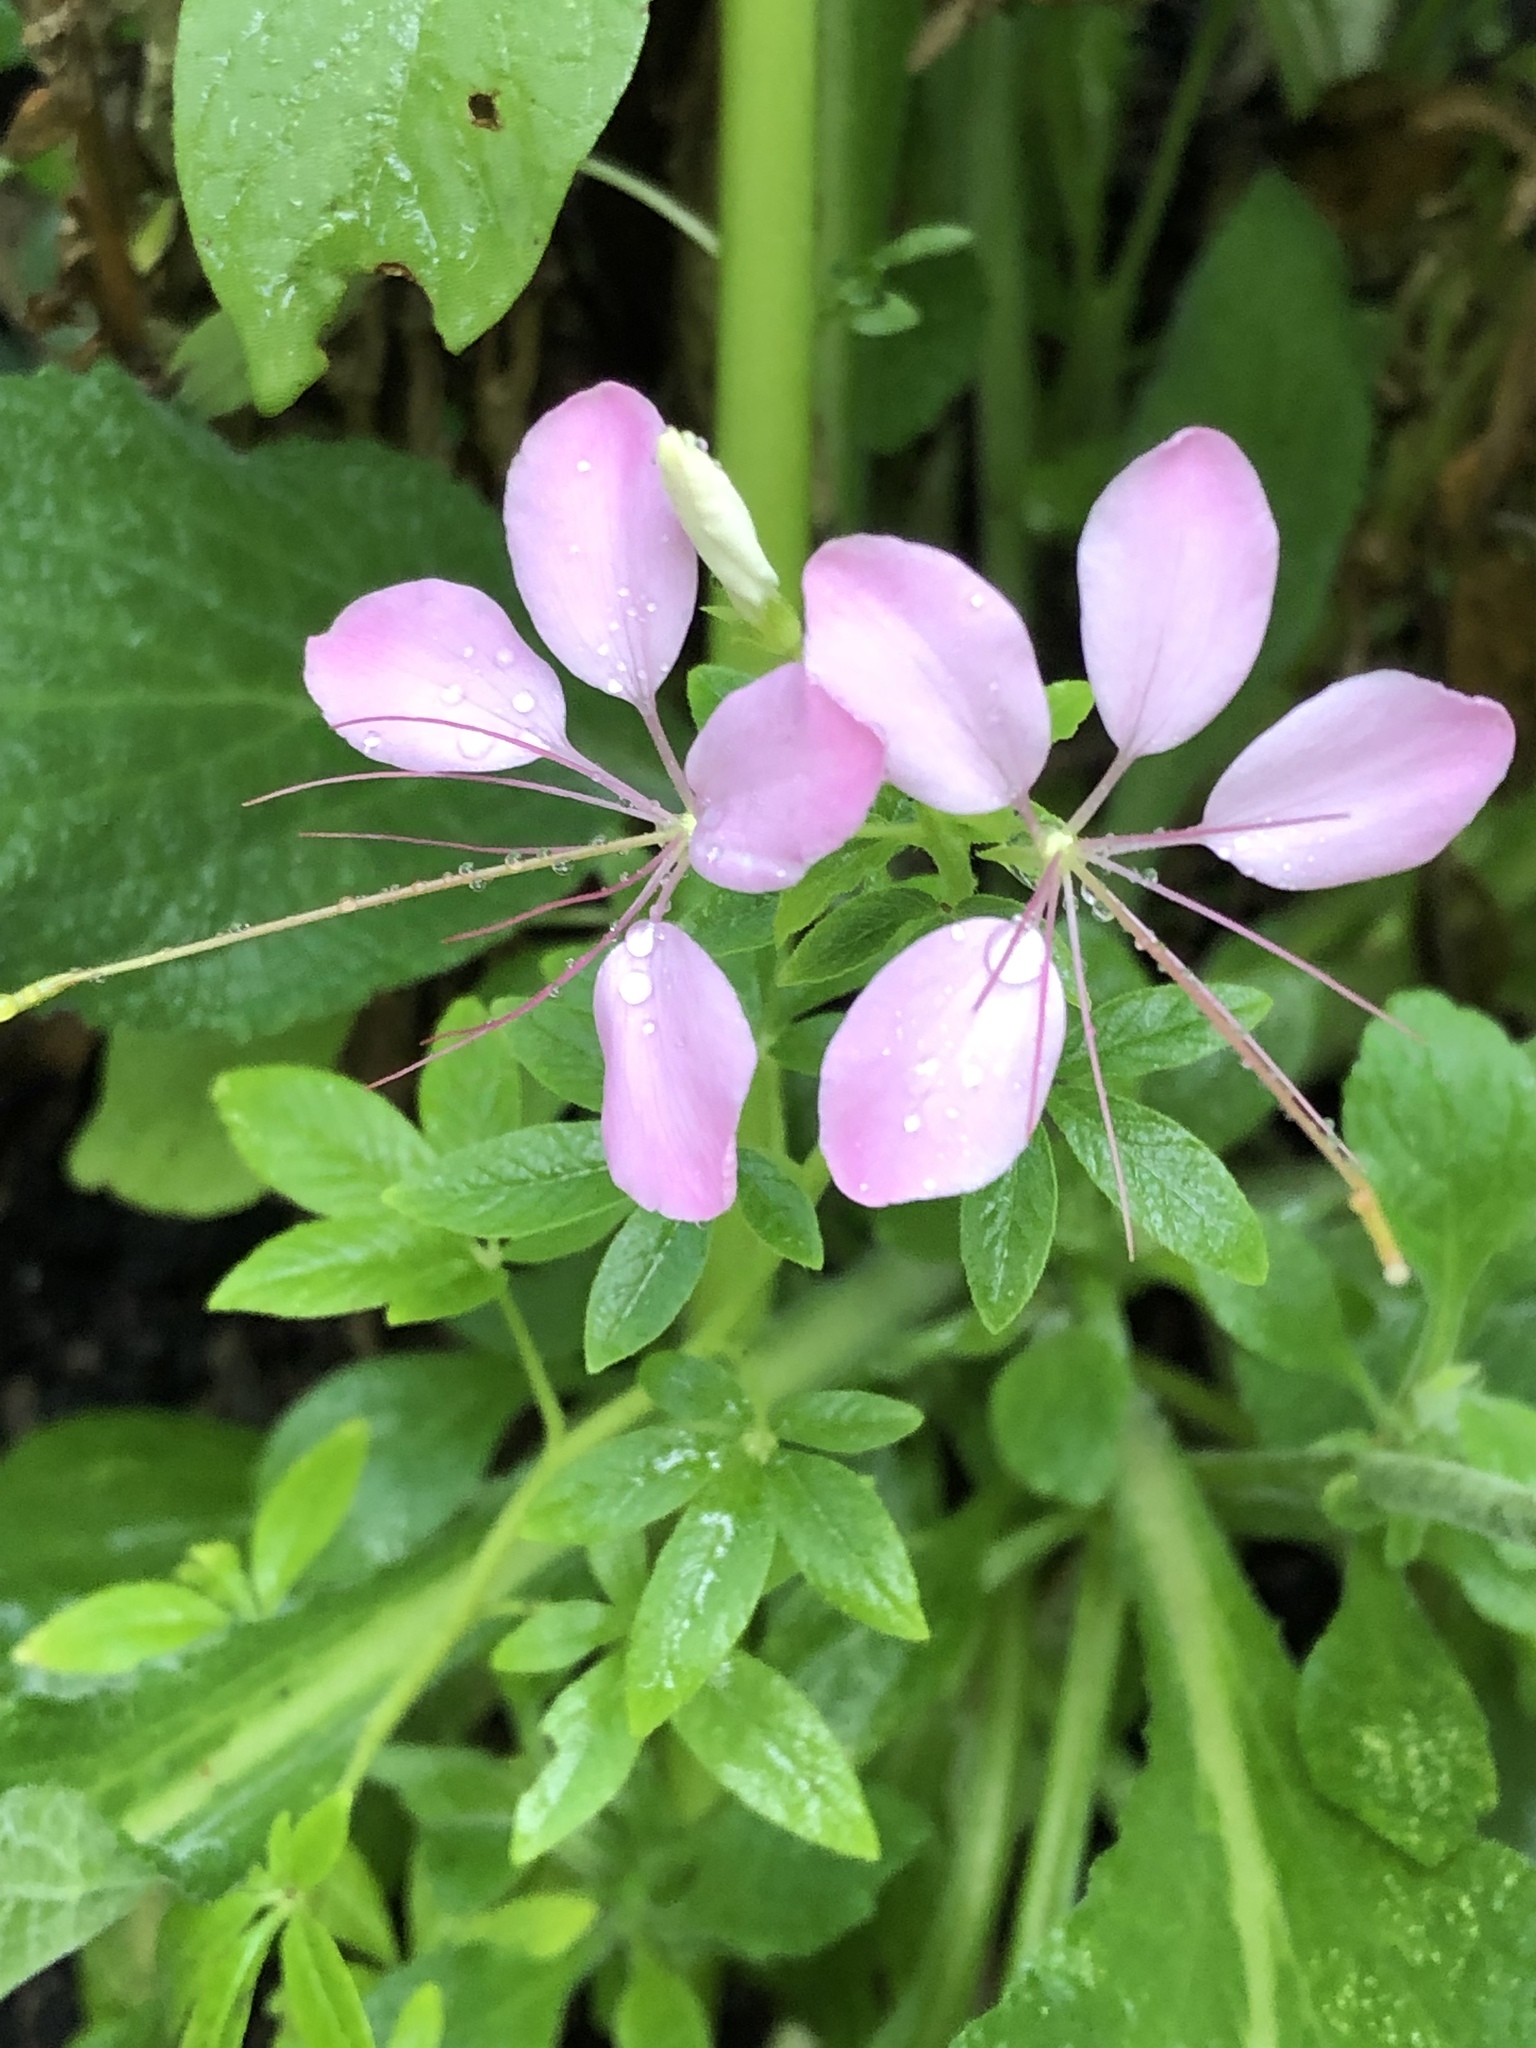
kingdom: Plantae
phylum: Tracheophyta
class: Magnoliopsida
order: Brassicales
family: Cleomaceae
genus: Tarenaya
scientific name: Tarenaya houtteana
